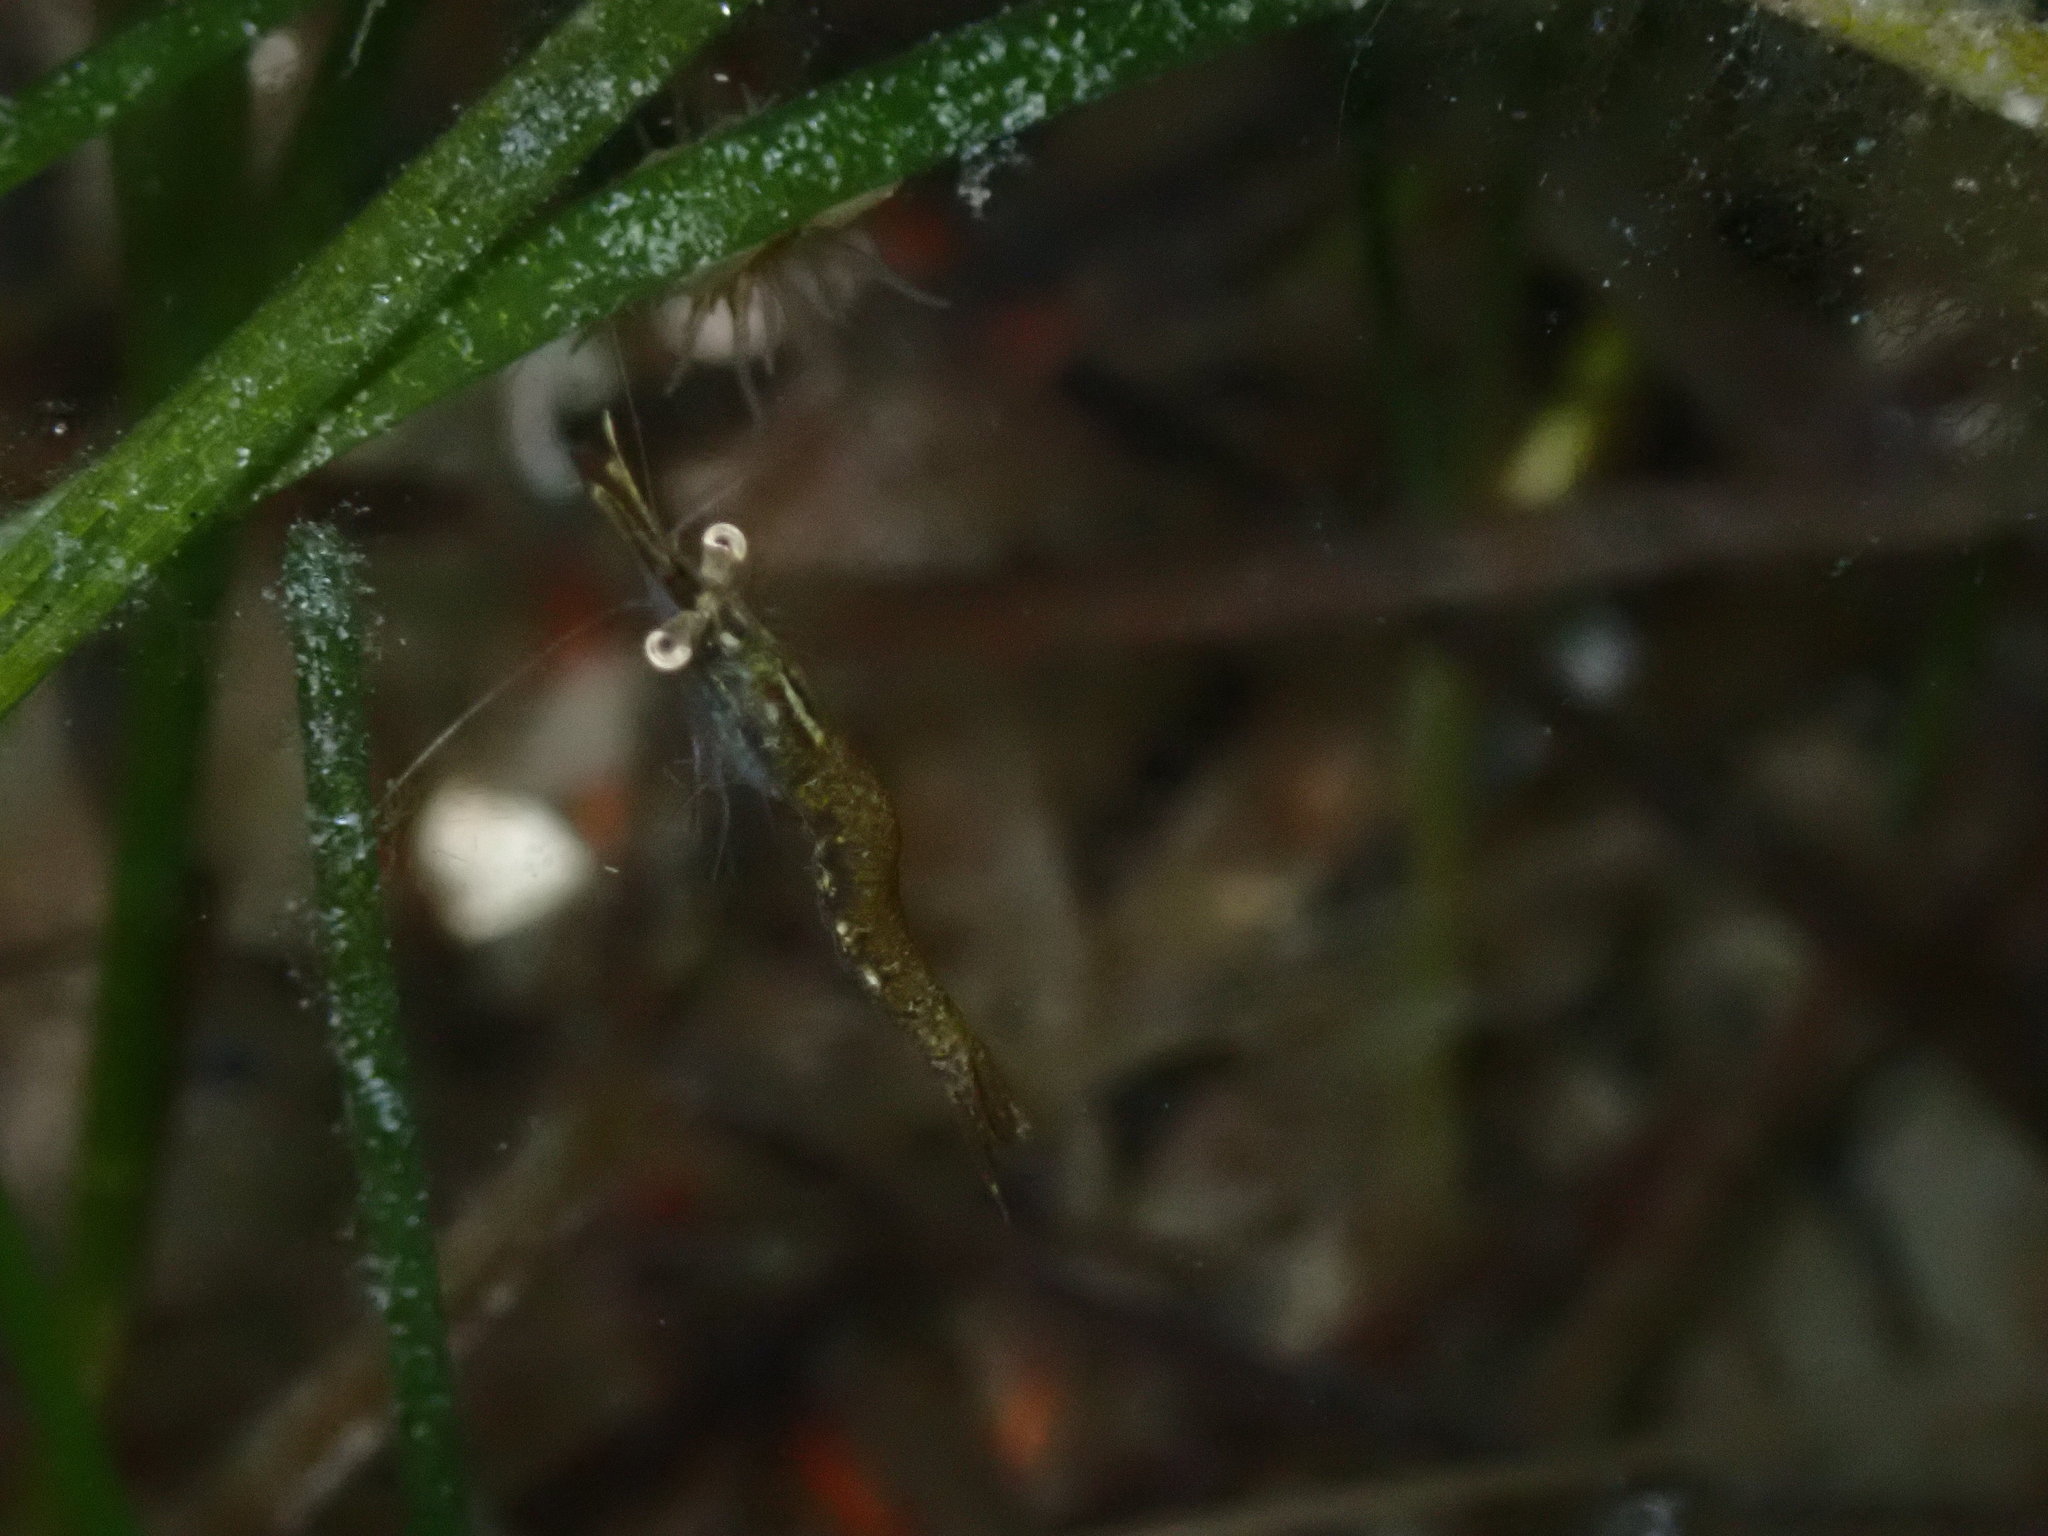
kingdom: Animalia
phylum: Arthropoda
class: Malacostraca
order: Mysida
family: Mysidae
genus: Praunus
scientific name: Praunus flexuosus
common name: Chameleon shrimp
